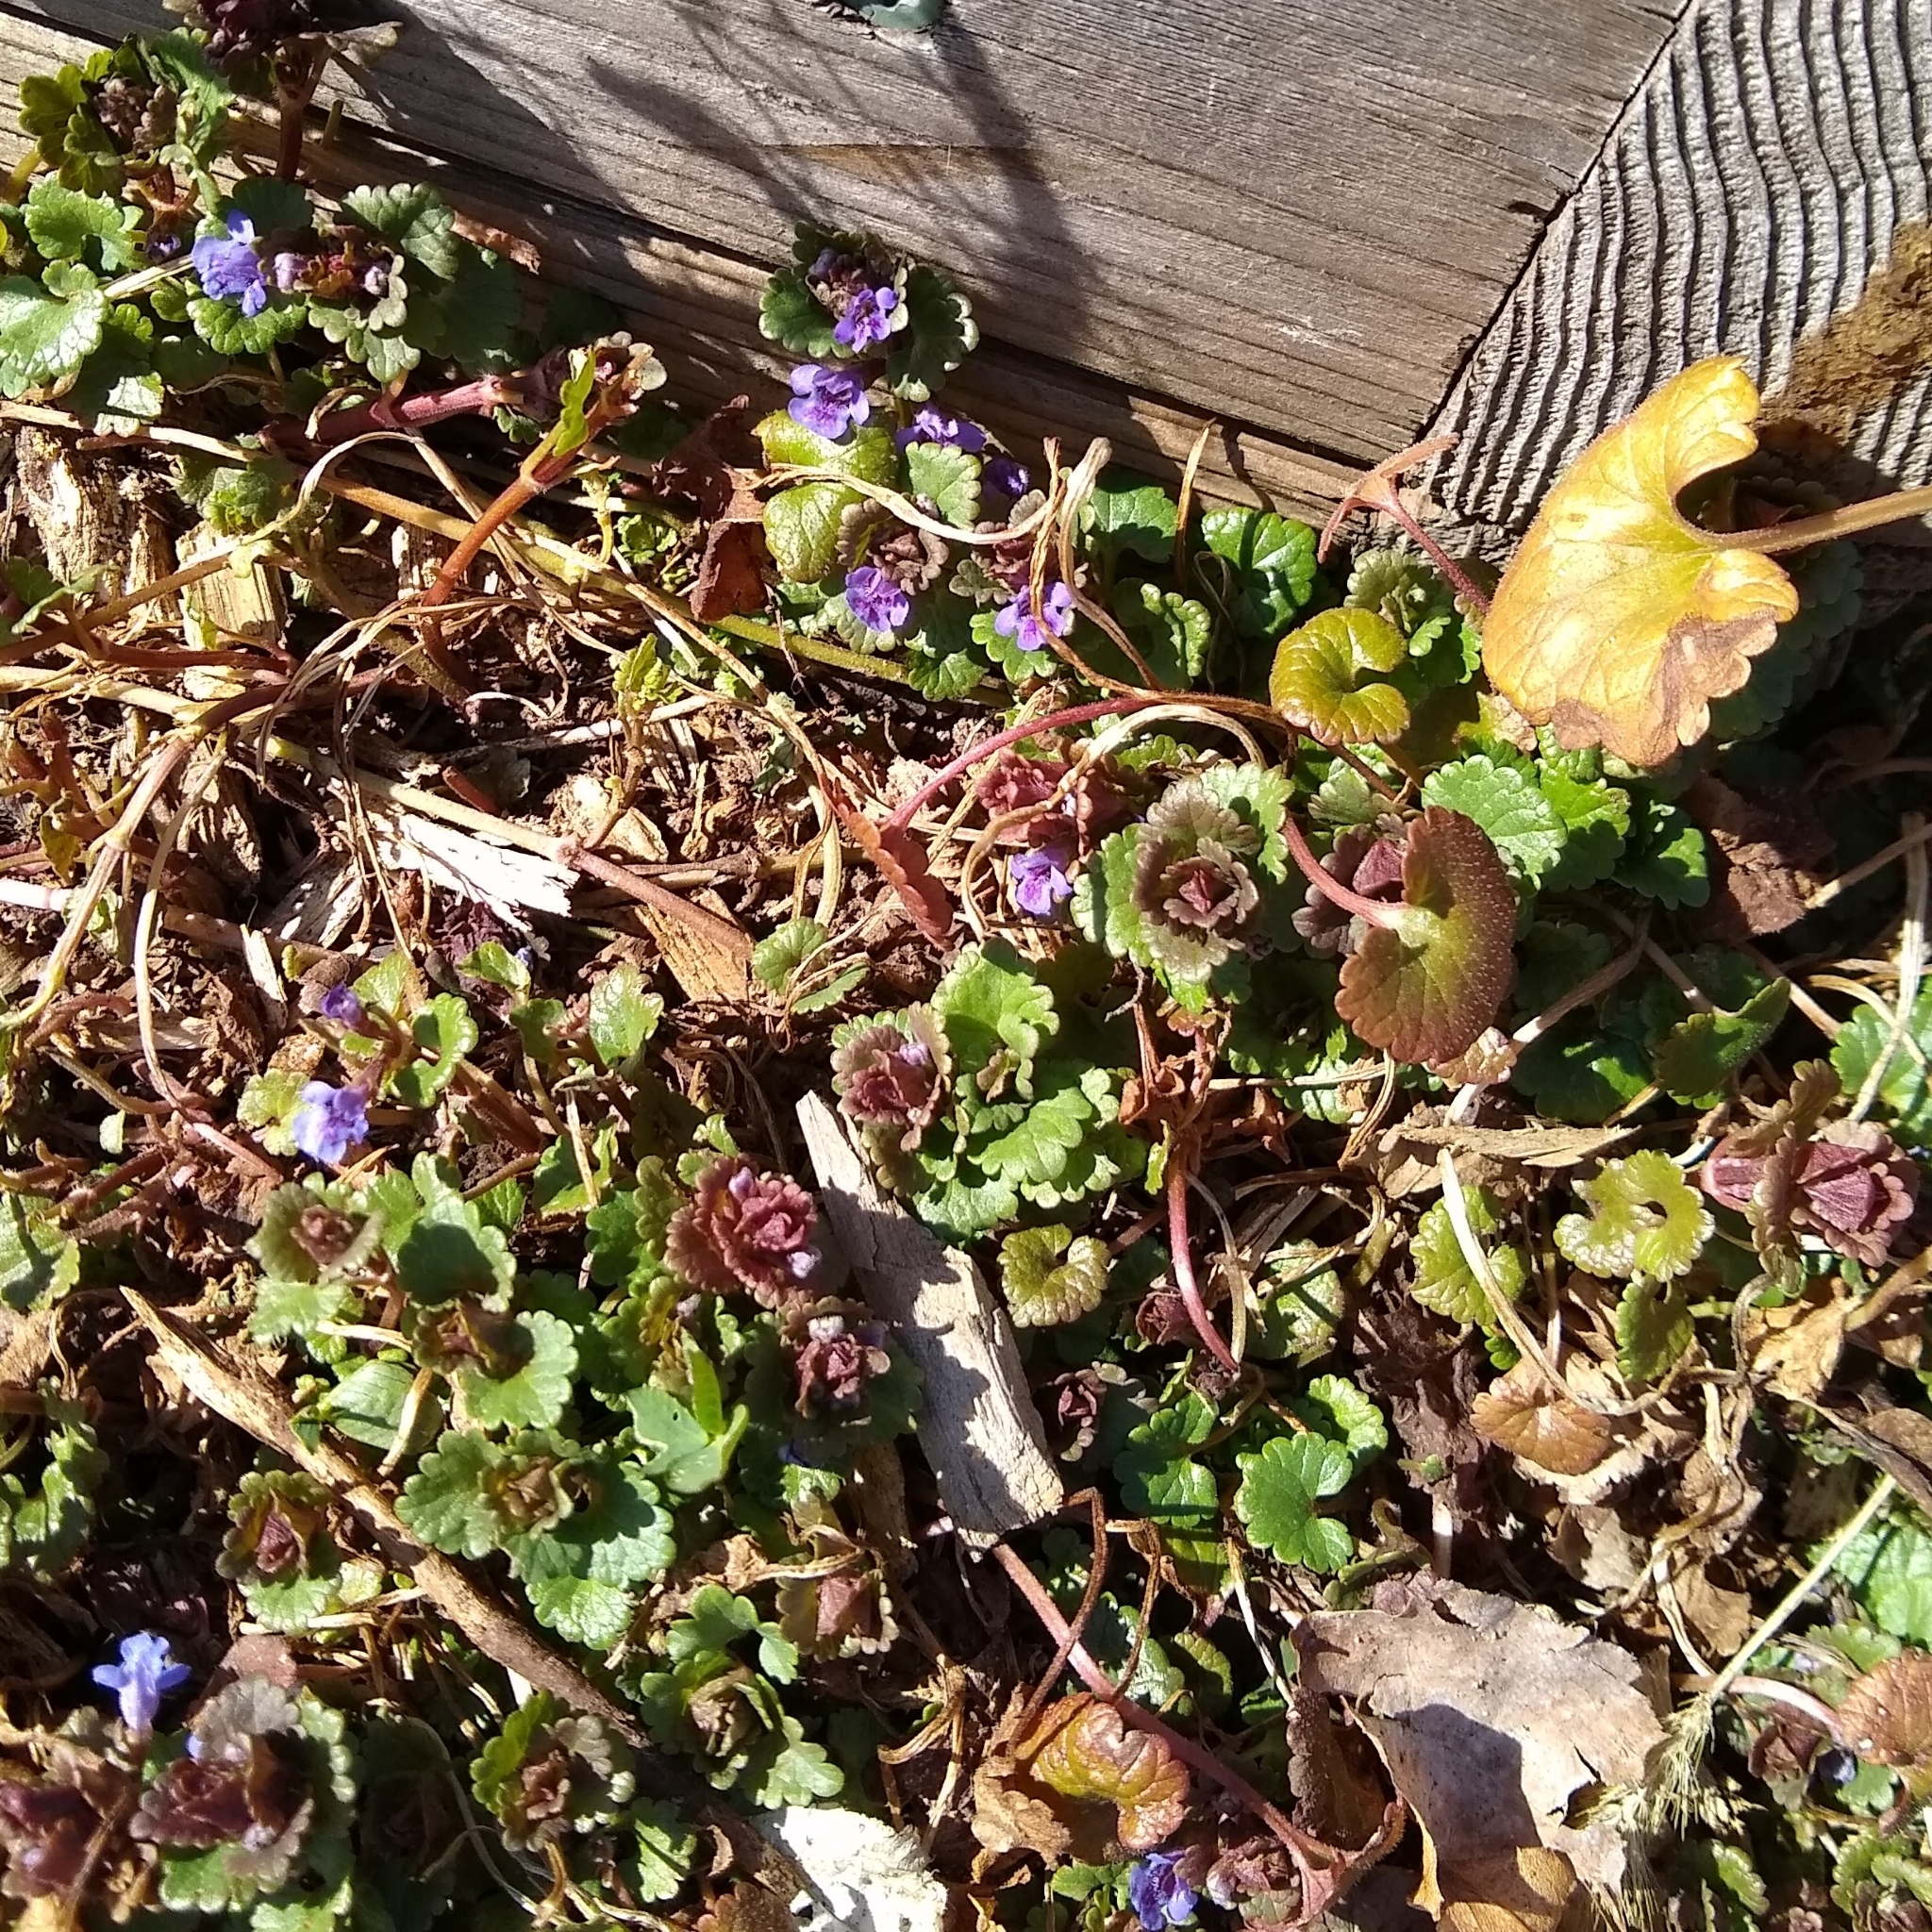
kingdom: Plantae
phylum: Tracheophyta
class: Magnoliopsida
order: Lamiales
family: Lamiaceae
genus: Glechoma
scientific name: Glechoma hederacea
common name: Ground ivy
